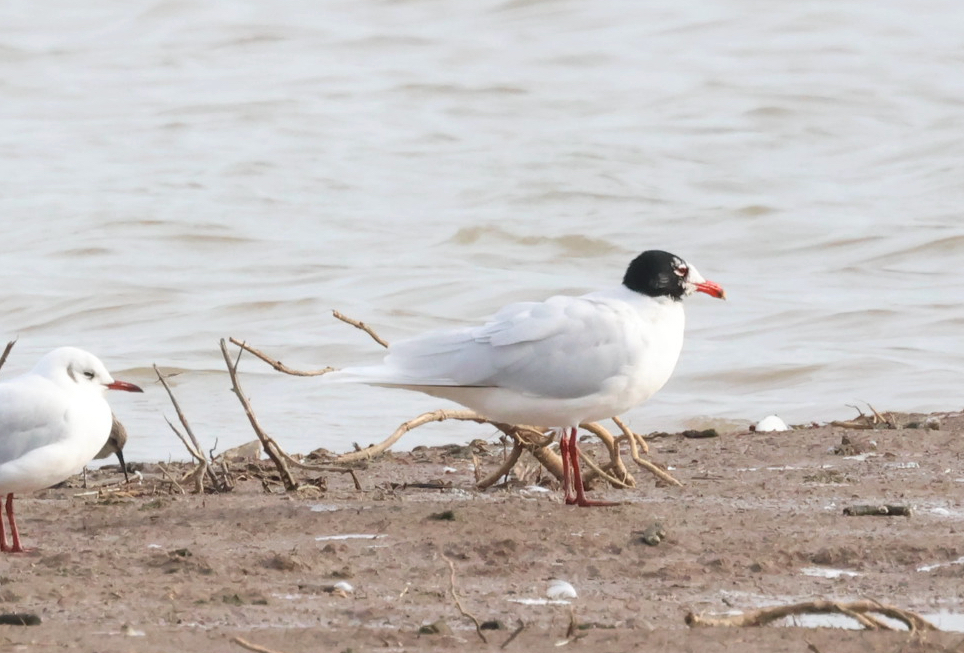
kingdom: Animalia
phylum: Chordata
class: Aves
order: Charadriiformes
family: Laridae
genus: Ichthyaetus
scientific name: Ichthyaetus melanocephalus
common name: Mediterranean gull
